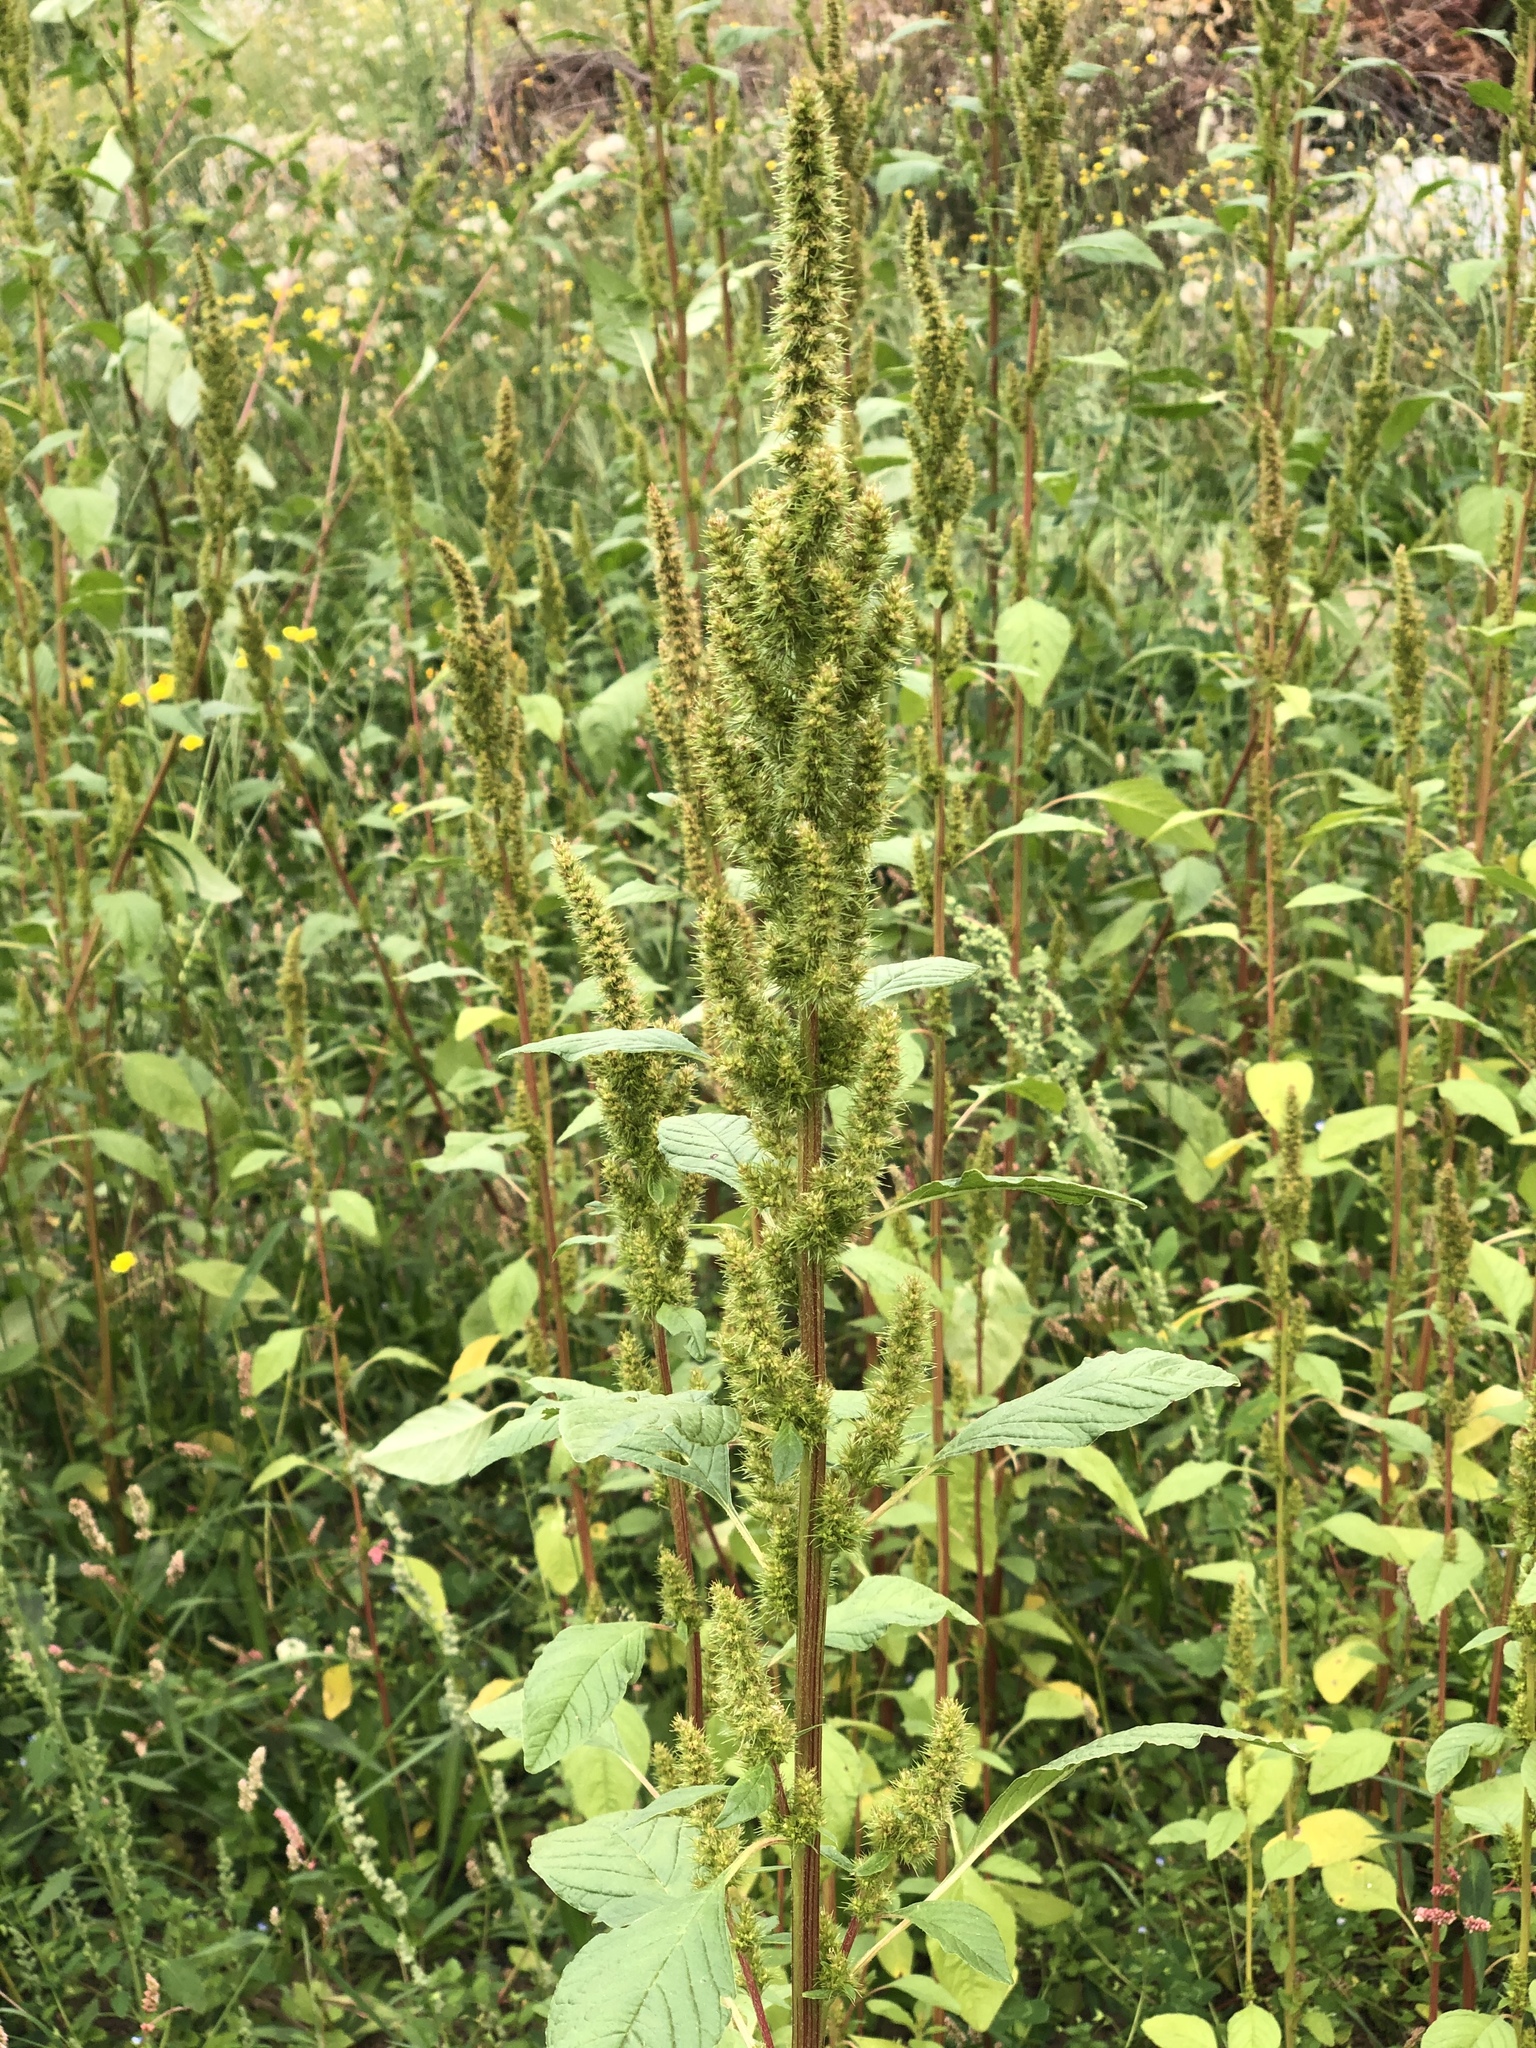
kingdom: Plantae
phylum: Tracheophyta
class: Magnoliopsida
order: Caryophyllales
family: Amaranthaceae
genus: Amaranthus
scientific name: Amaranthus retroflexus
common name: Redroot amaranth
